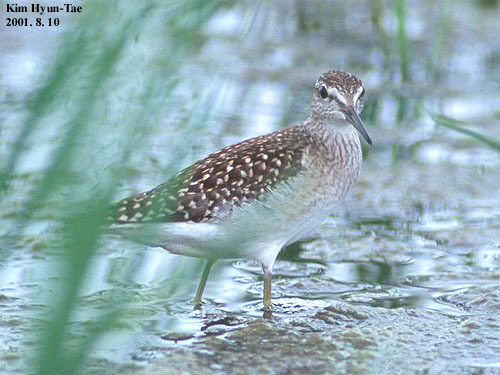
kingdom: Animalia
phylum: Chordata
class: Aves
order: Charadriiformes
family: Scolopacidae
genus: Tringa
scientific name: Tringa glareola
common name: Wood sandpiper
